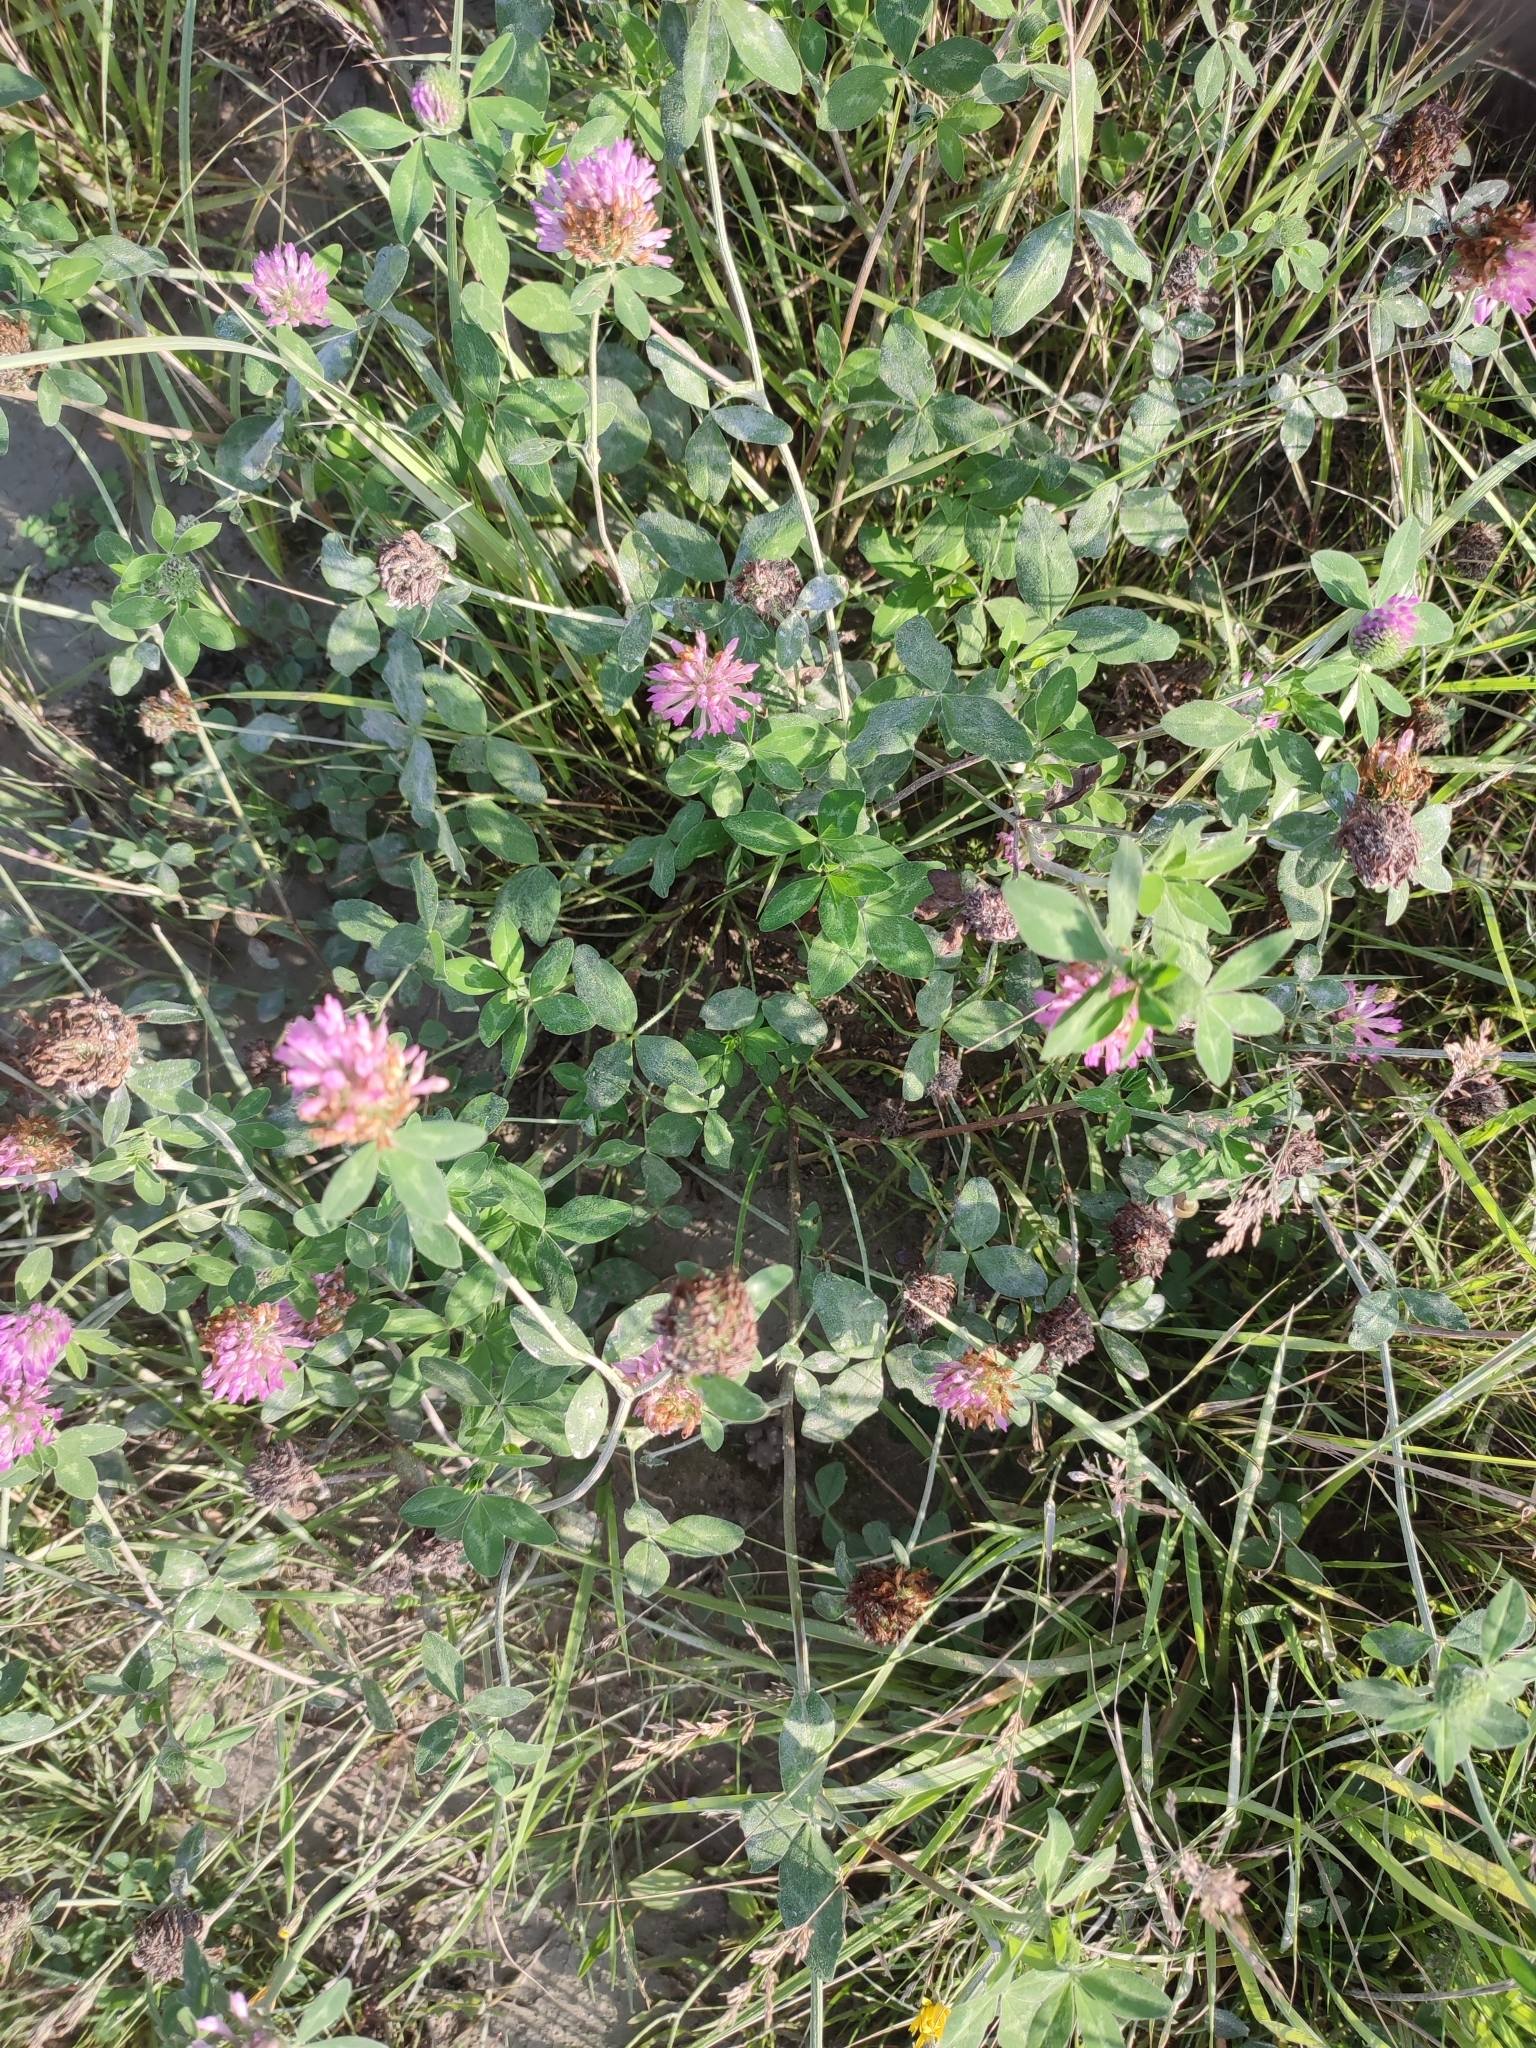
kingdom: Plantae
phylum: Tracheophyta
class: Magnoliopsida
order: Fabales
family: Fabaceae
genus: Trifolium
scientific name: Trifolium pratense
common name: Red clover
